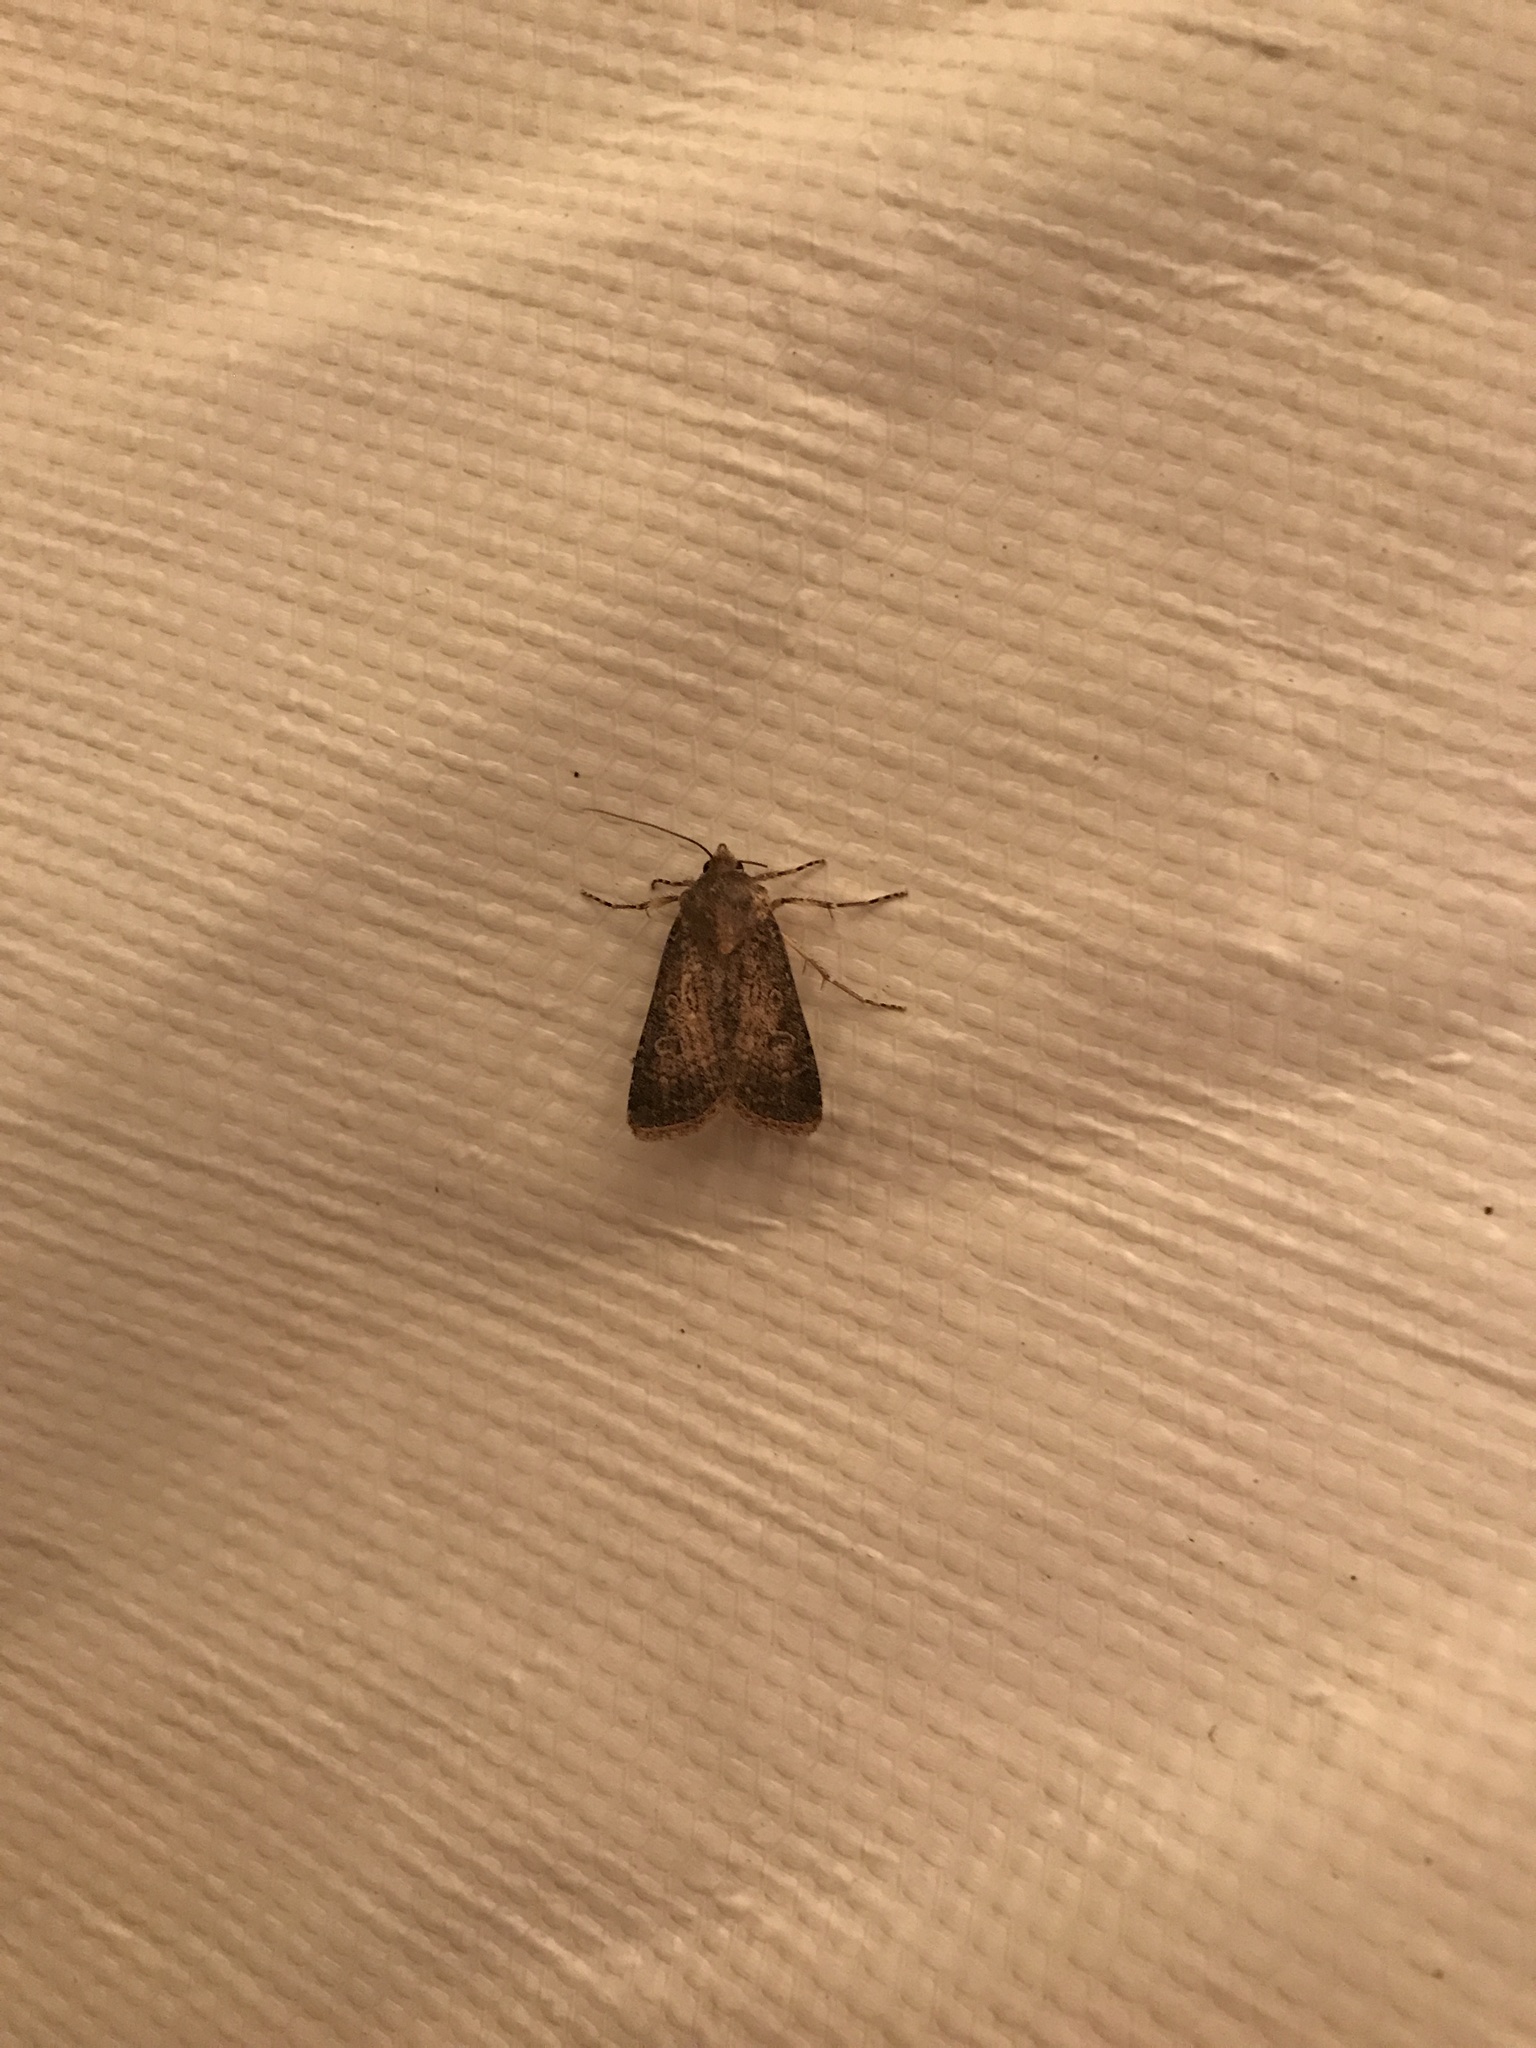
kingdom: Animalia
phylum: Arthropoda
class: Insecta
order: Lepidoptera
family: Noctuidae
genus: Peridroma
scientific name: Peridroma saucia
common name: Pearly underwing
